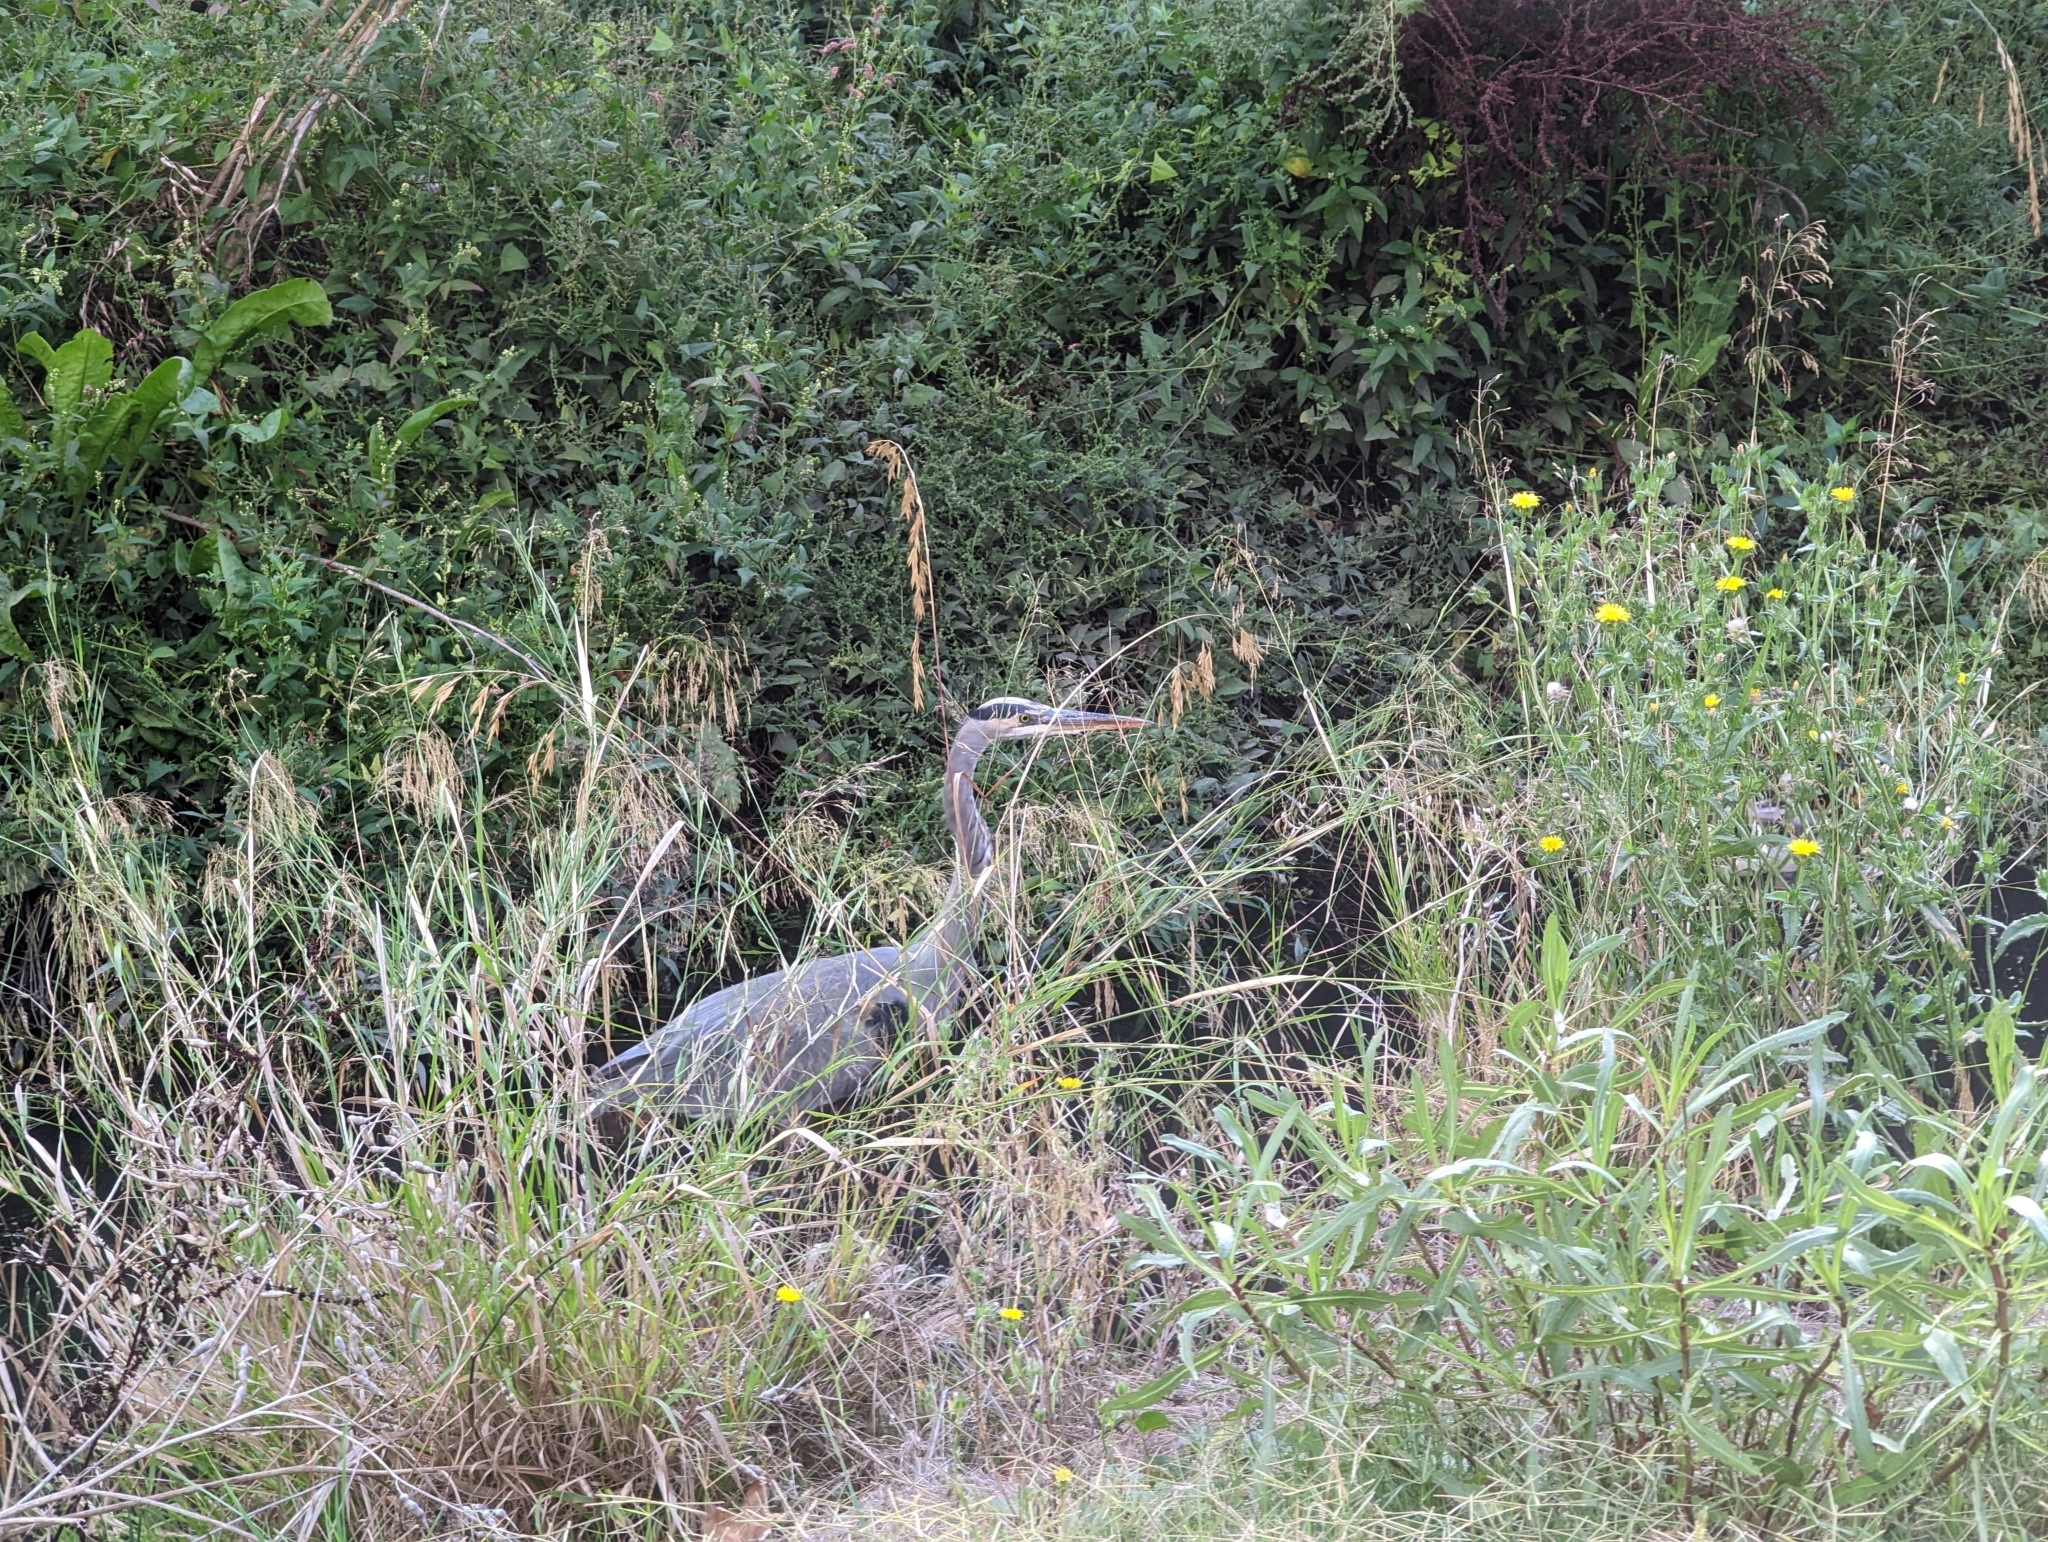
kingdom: Animalia
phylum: Chordata
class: Aves
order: Pelecaniformes
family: Ardeidae
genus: Ardea
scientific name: Ardea herodias
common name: Great blue heron
